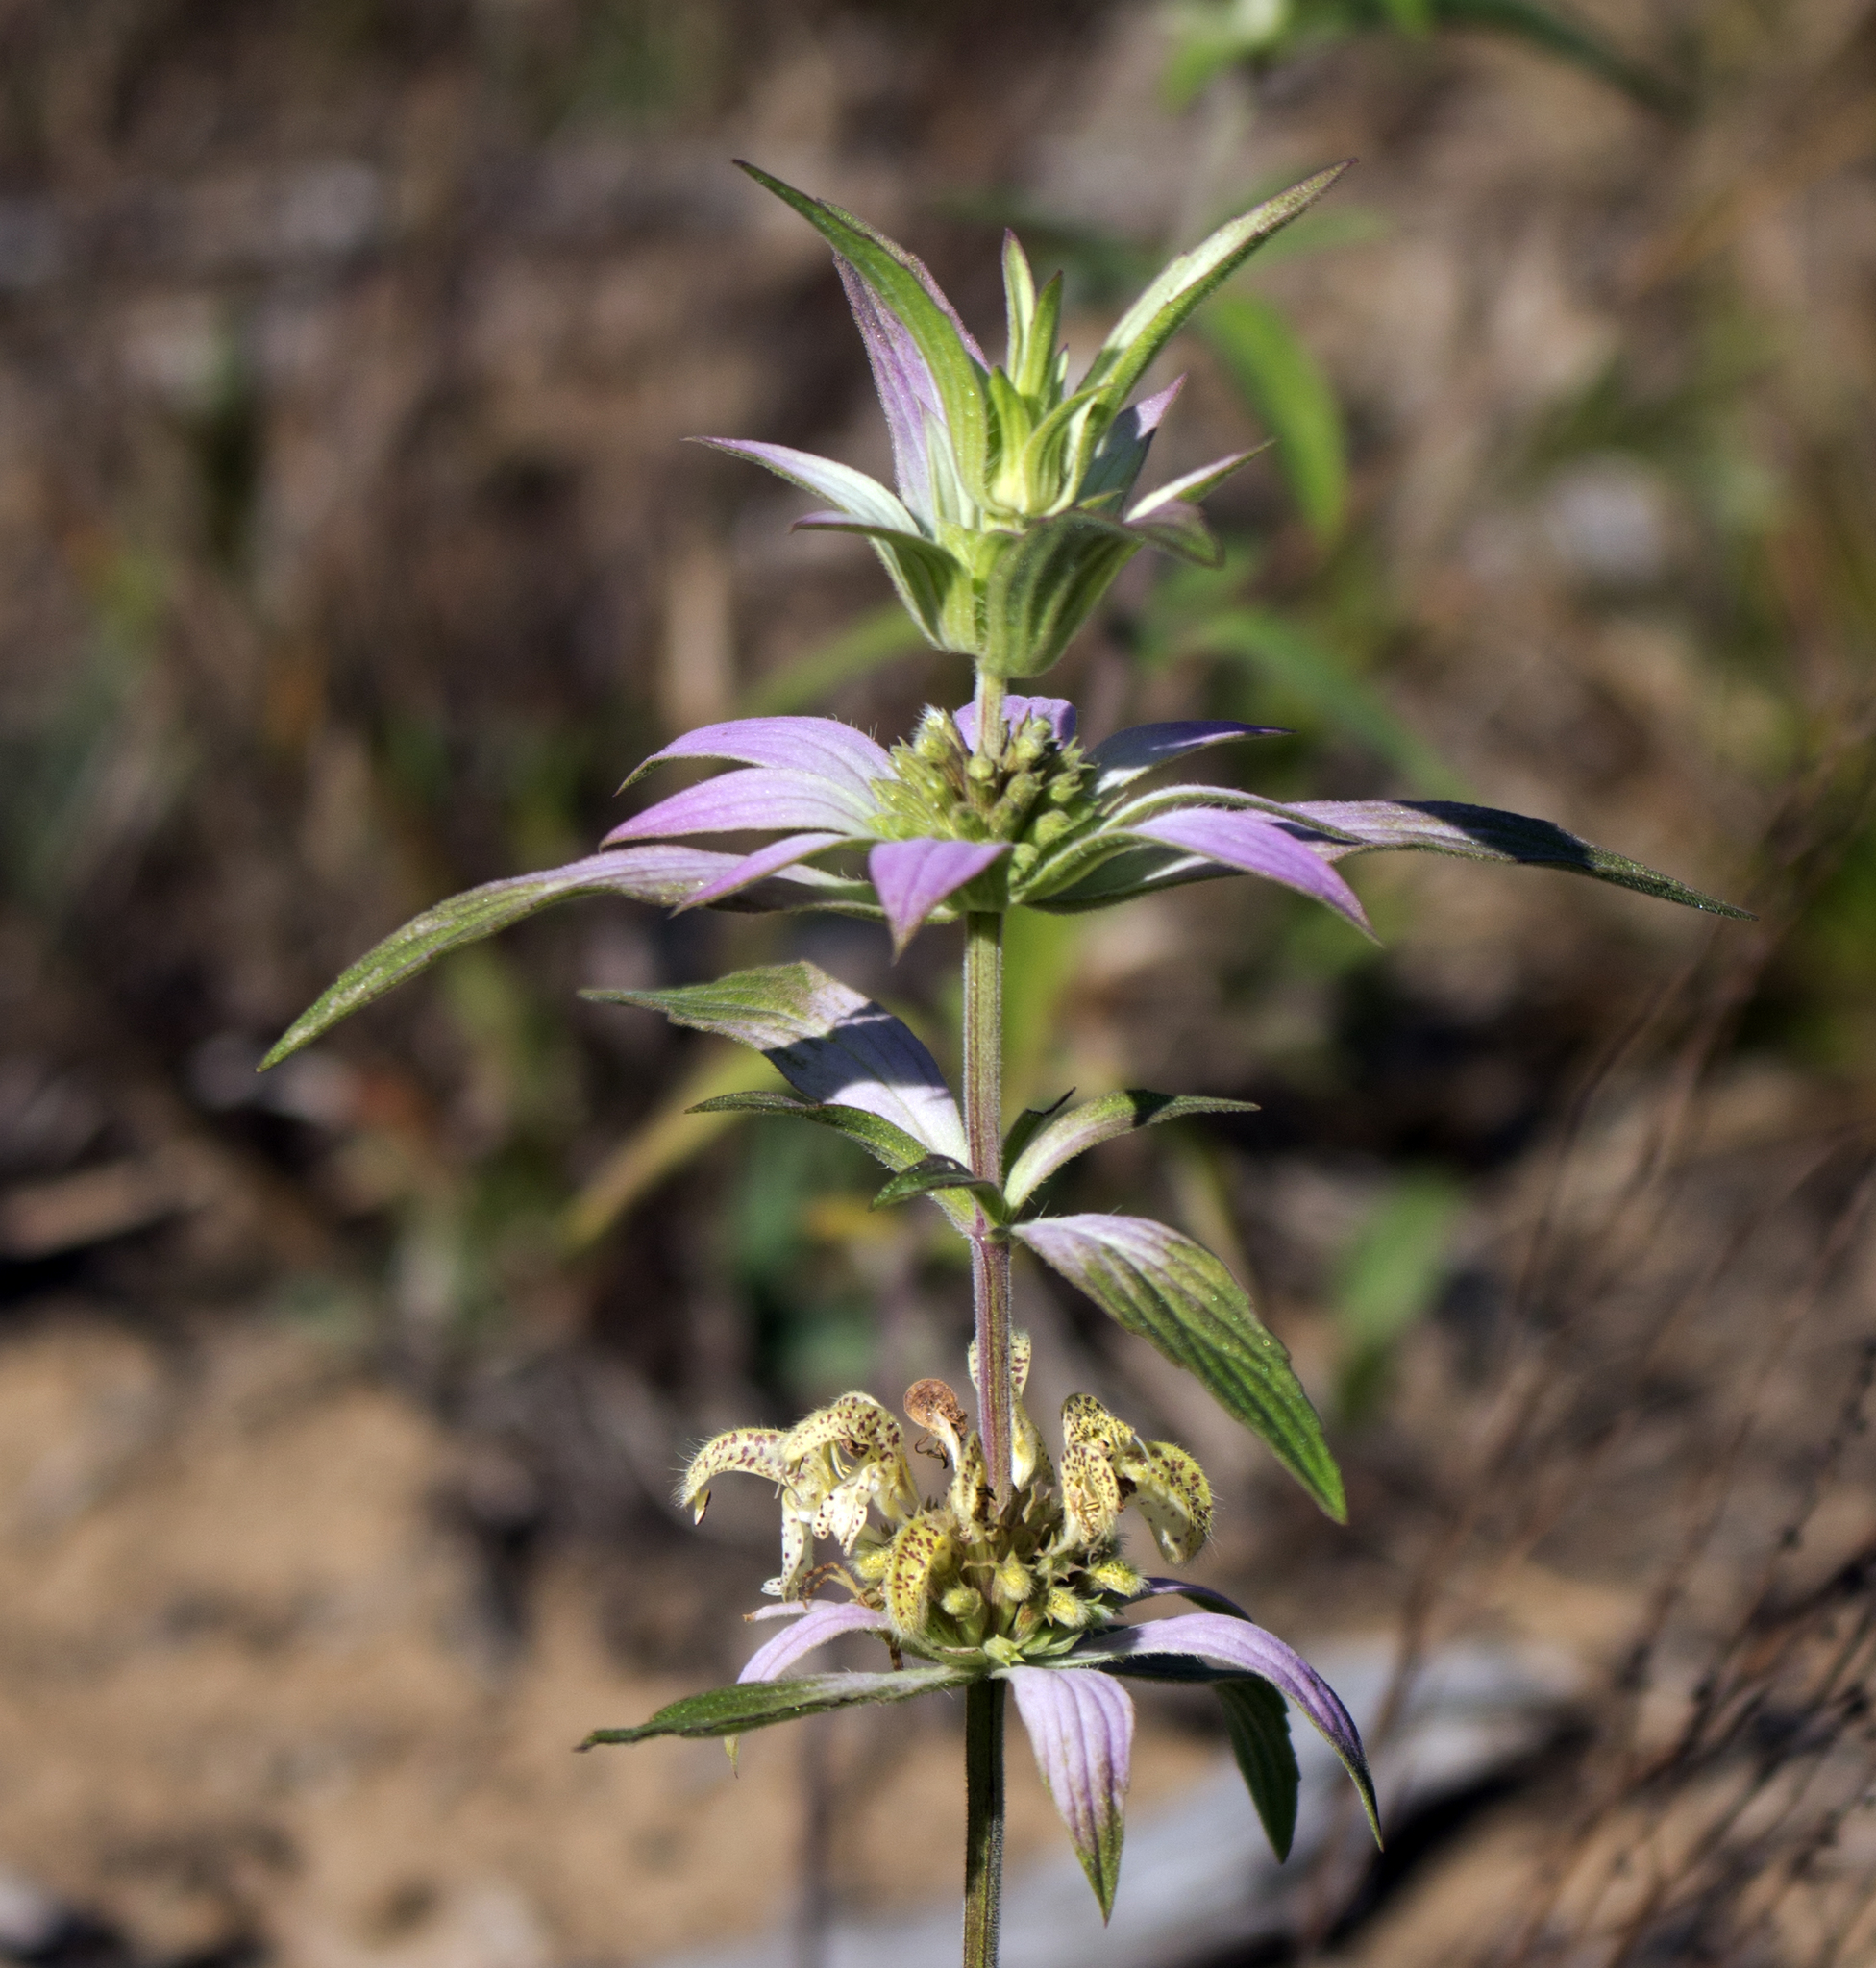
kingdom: Plantae
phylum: Tracheophyta
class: Magnoliopsida
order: Lamiales
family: Lamiaceae
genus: Monarda
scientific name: Monarda punctata
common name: Dotted monarda
